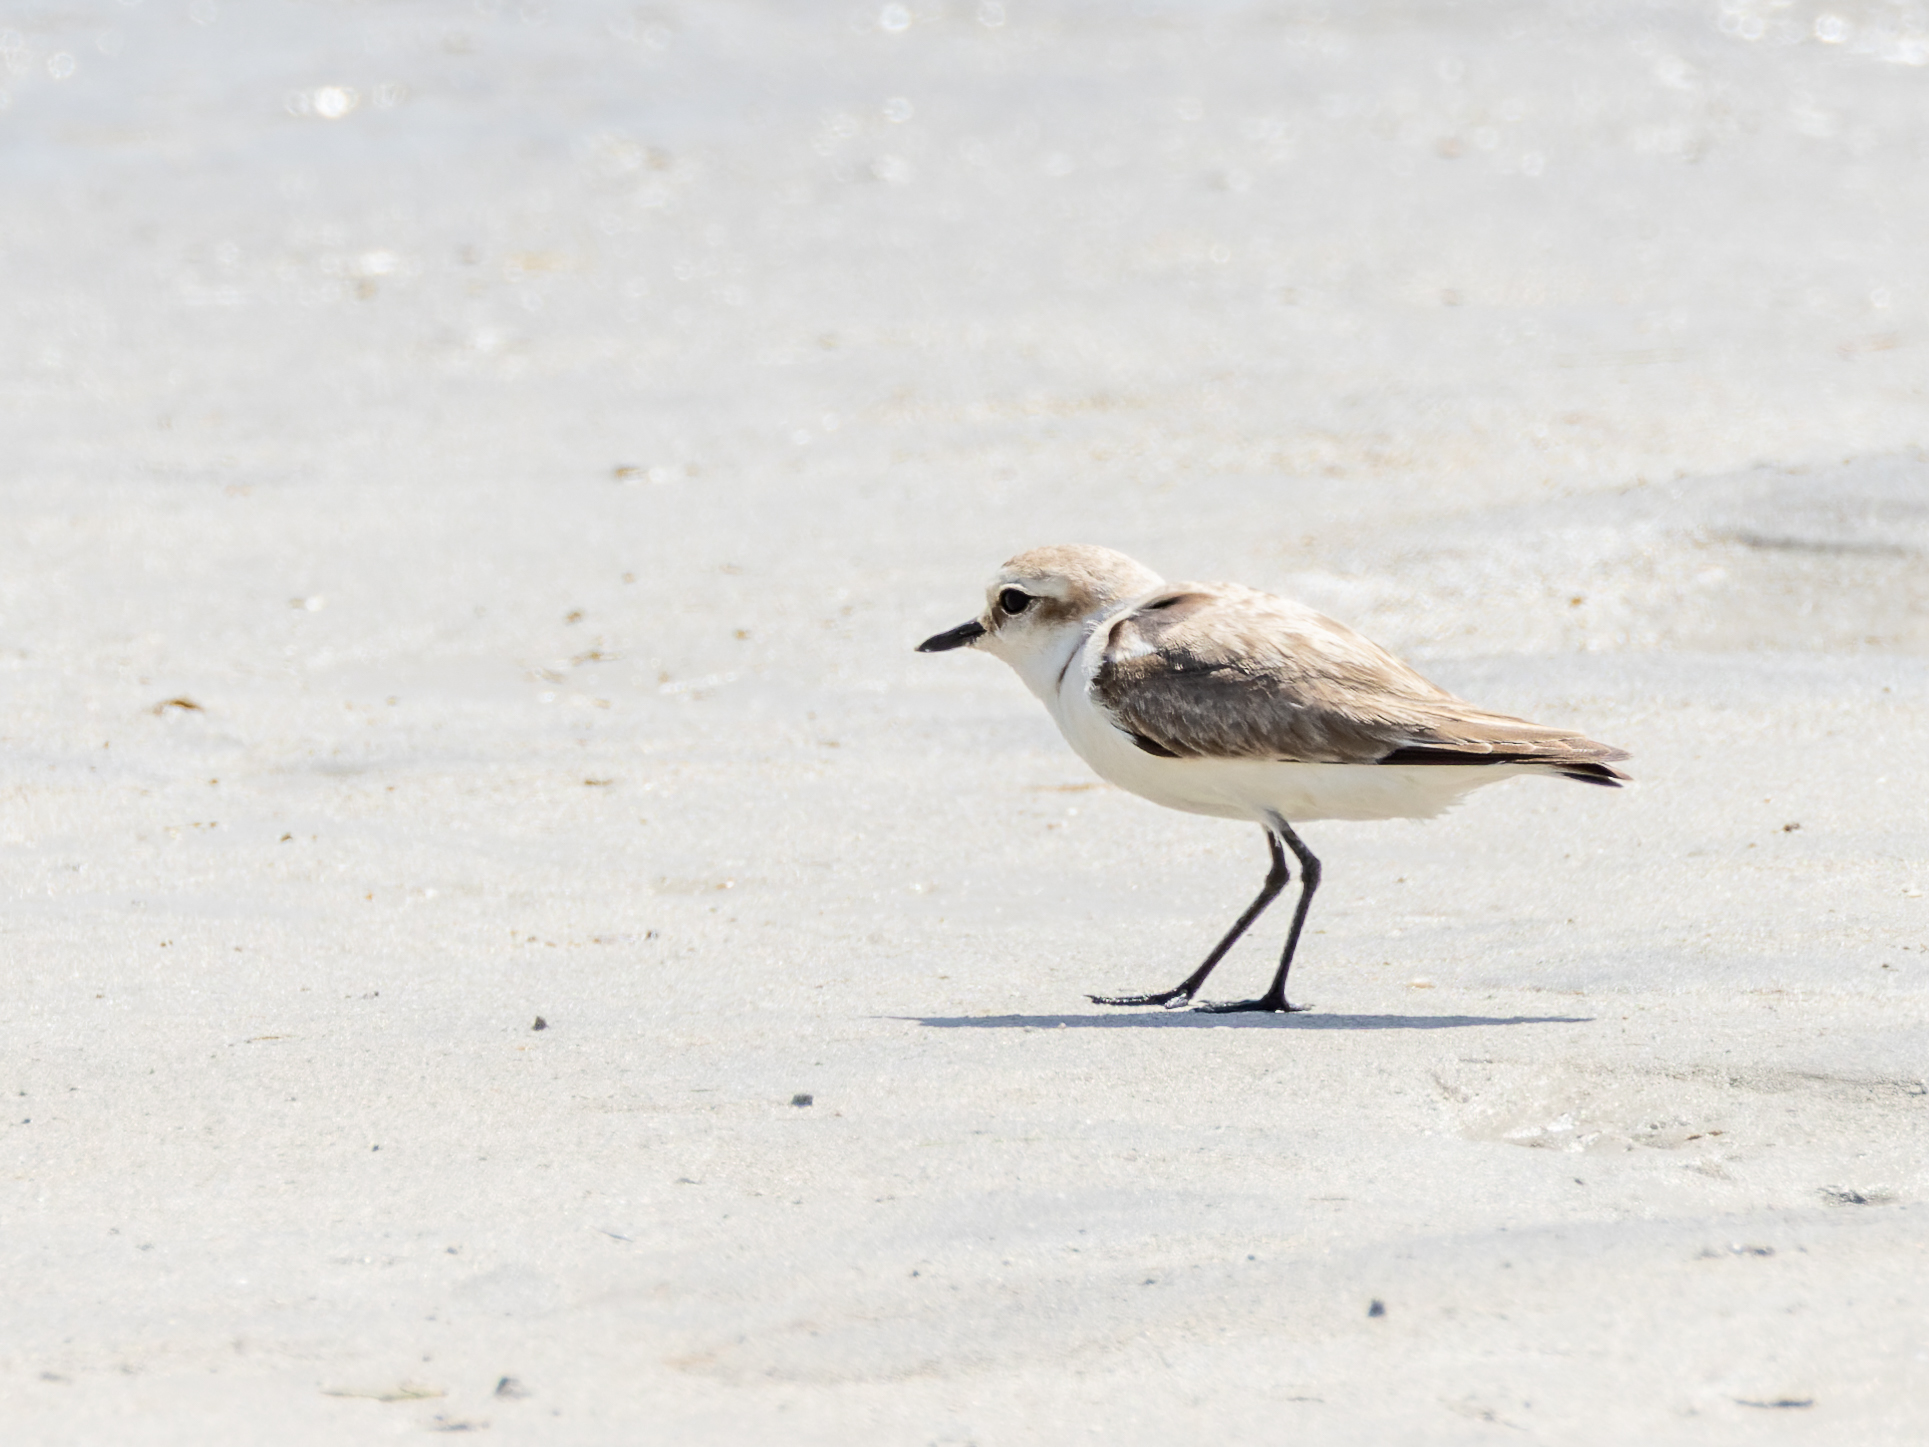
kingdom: Animalia
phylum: Chordata
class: Aves
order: Charadriiformes
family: Charadriidae
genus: Charadrius
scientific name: Charadrius alexandrinus
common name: Kentish plover
